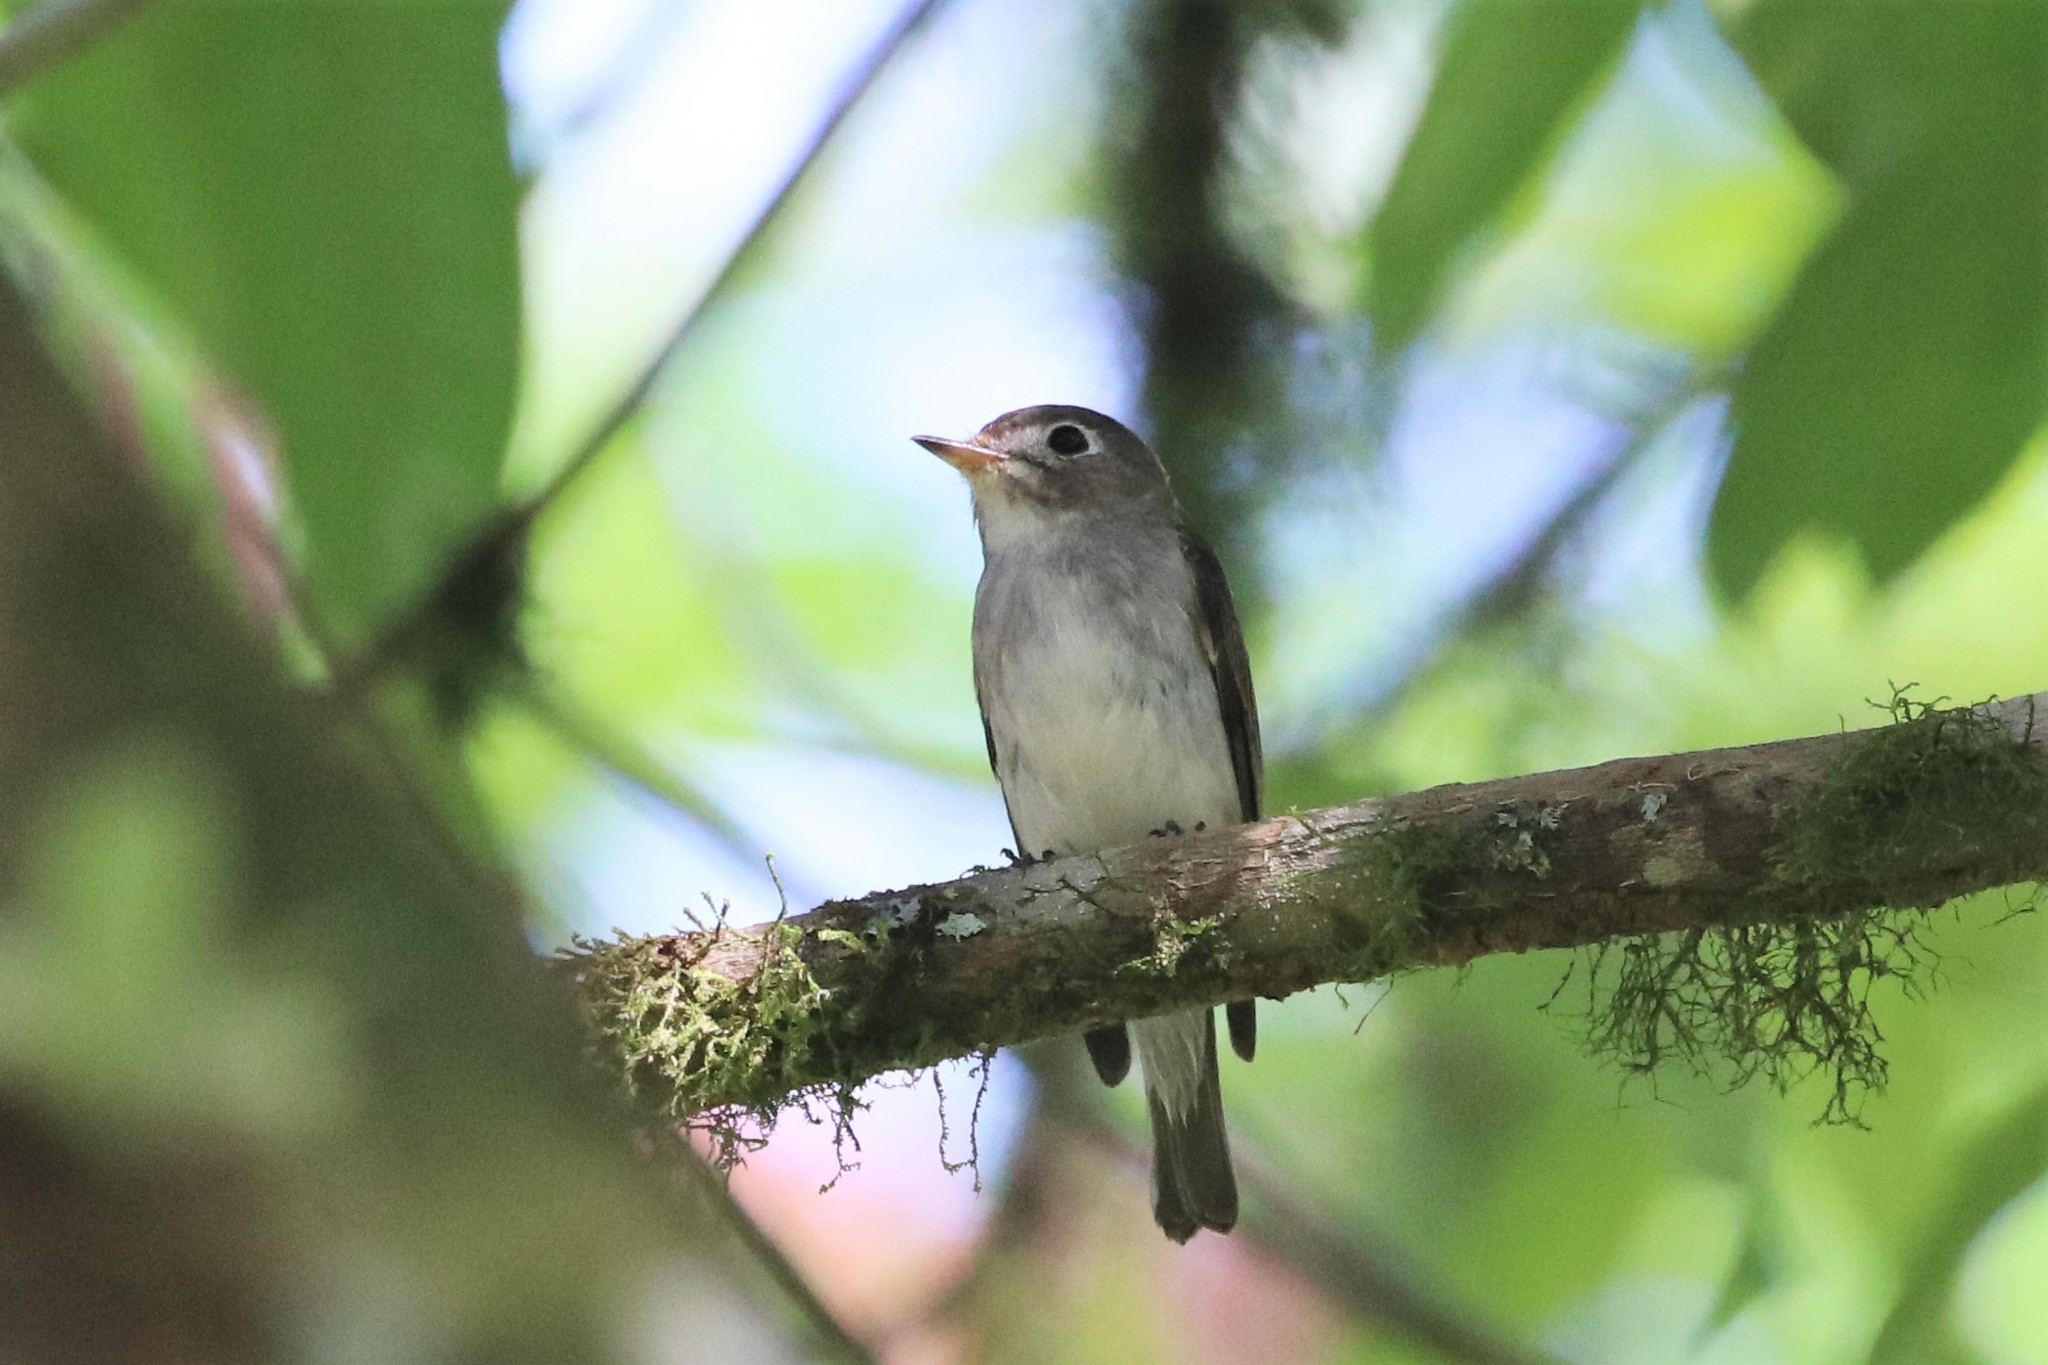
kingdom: Animalia
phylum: Chordata
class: Aves
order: Passeriformes
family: Muscicapidae
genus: Muscicapa
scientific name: Muscicapa latirostris
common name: Asian brown flycatcher
